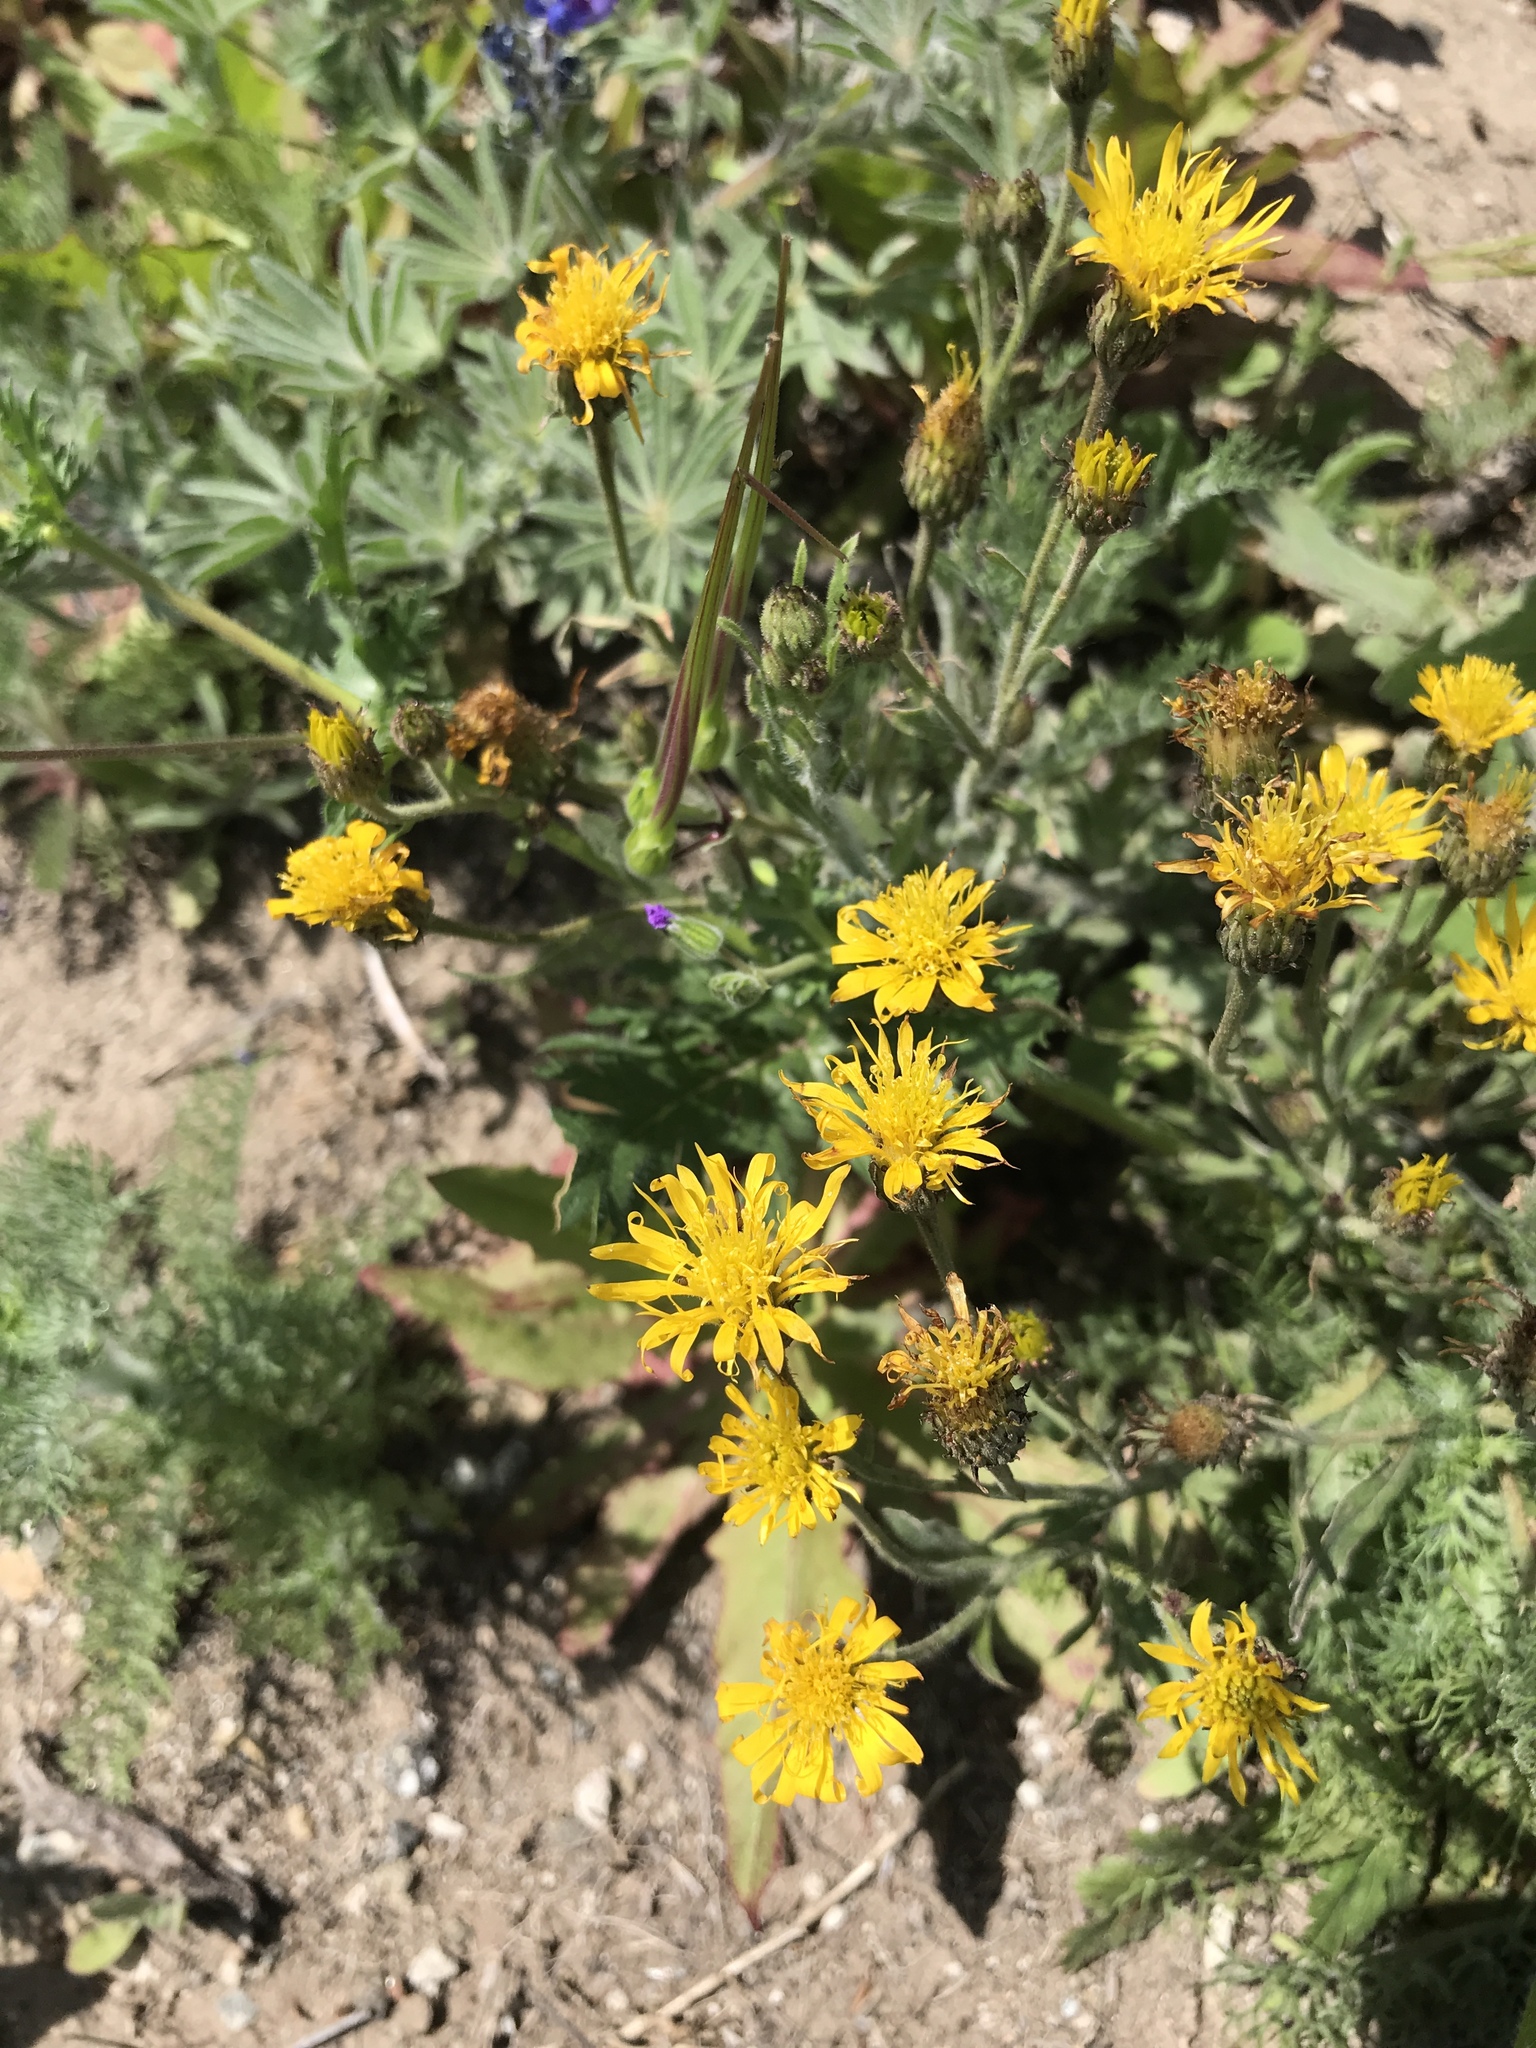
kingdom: Plantae
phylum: Tracheophyta
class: Magnoliopsida
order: Asterales
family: Asteraceae
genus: Heterotheca
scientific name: Heterotheca grandiflora
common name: Telegraphweed
